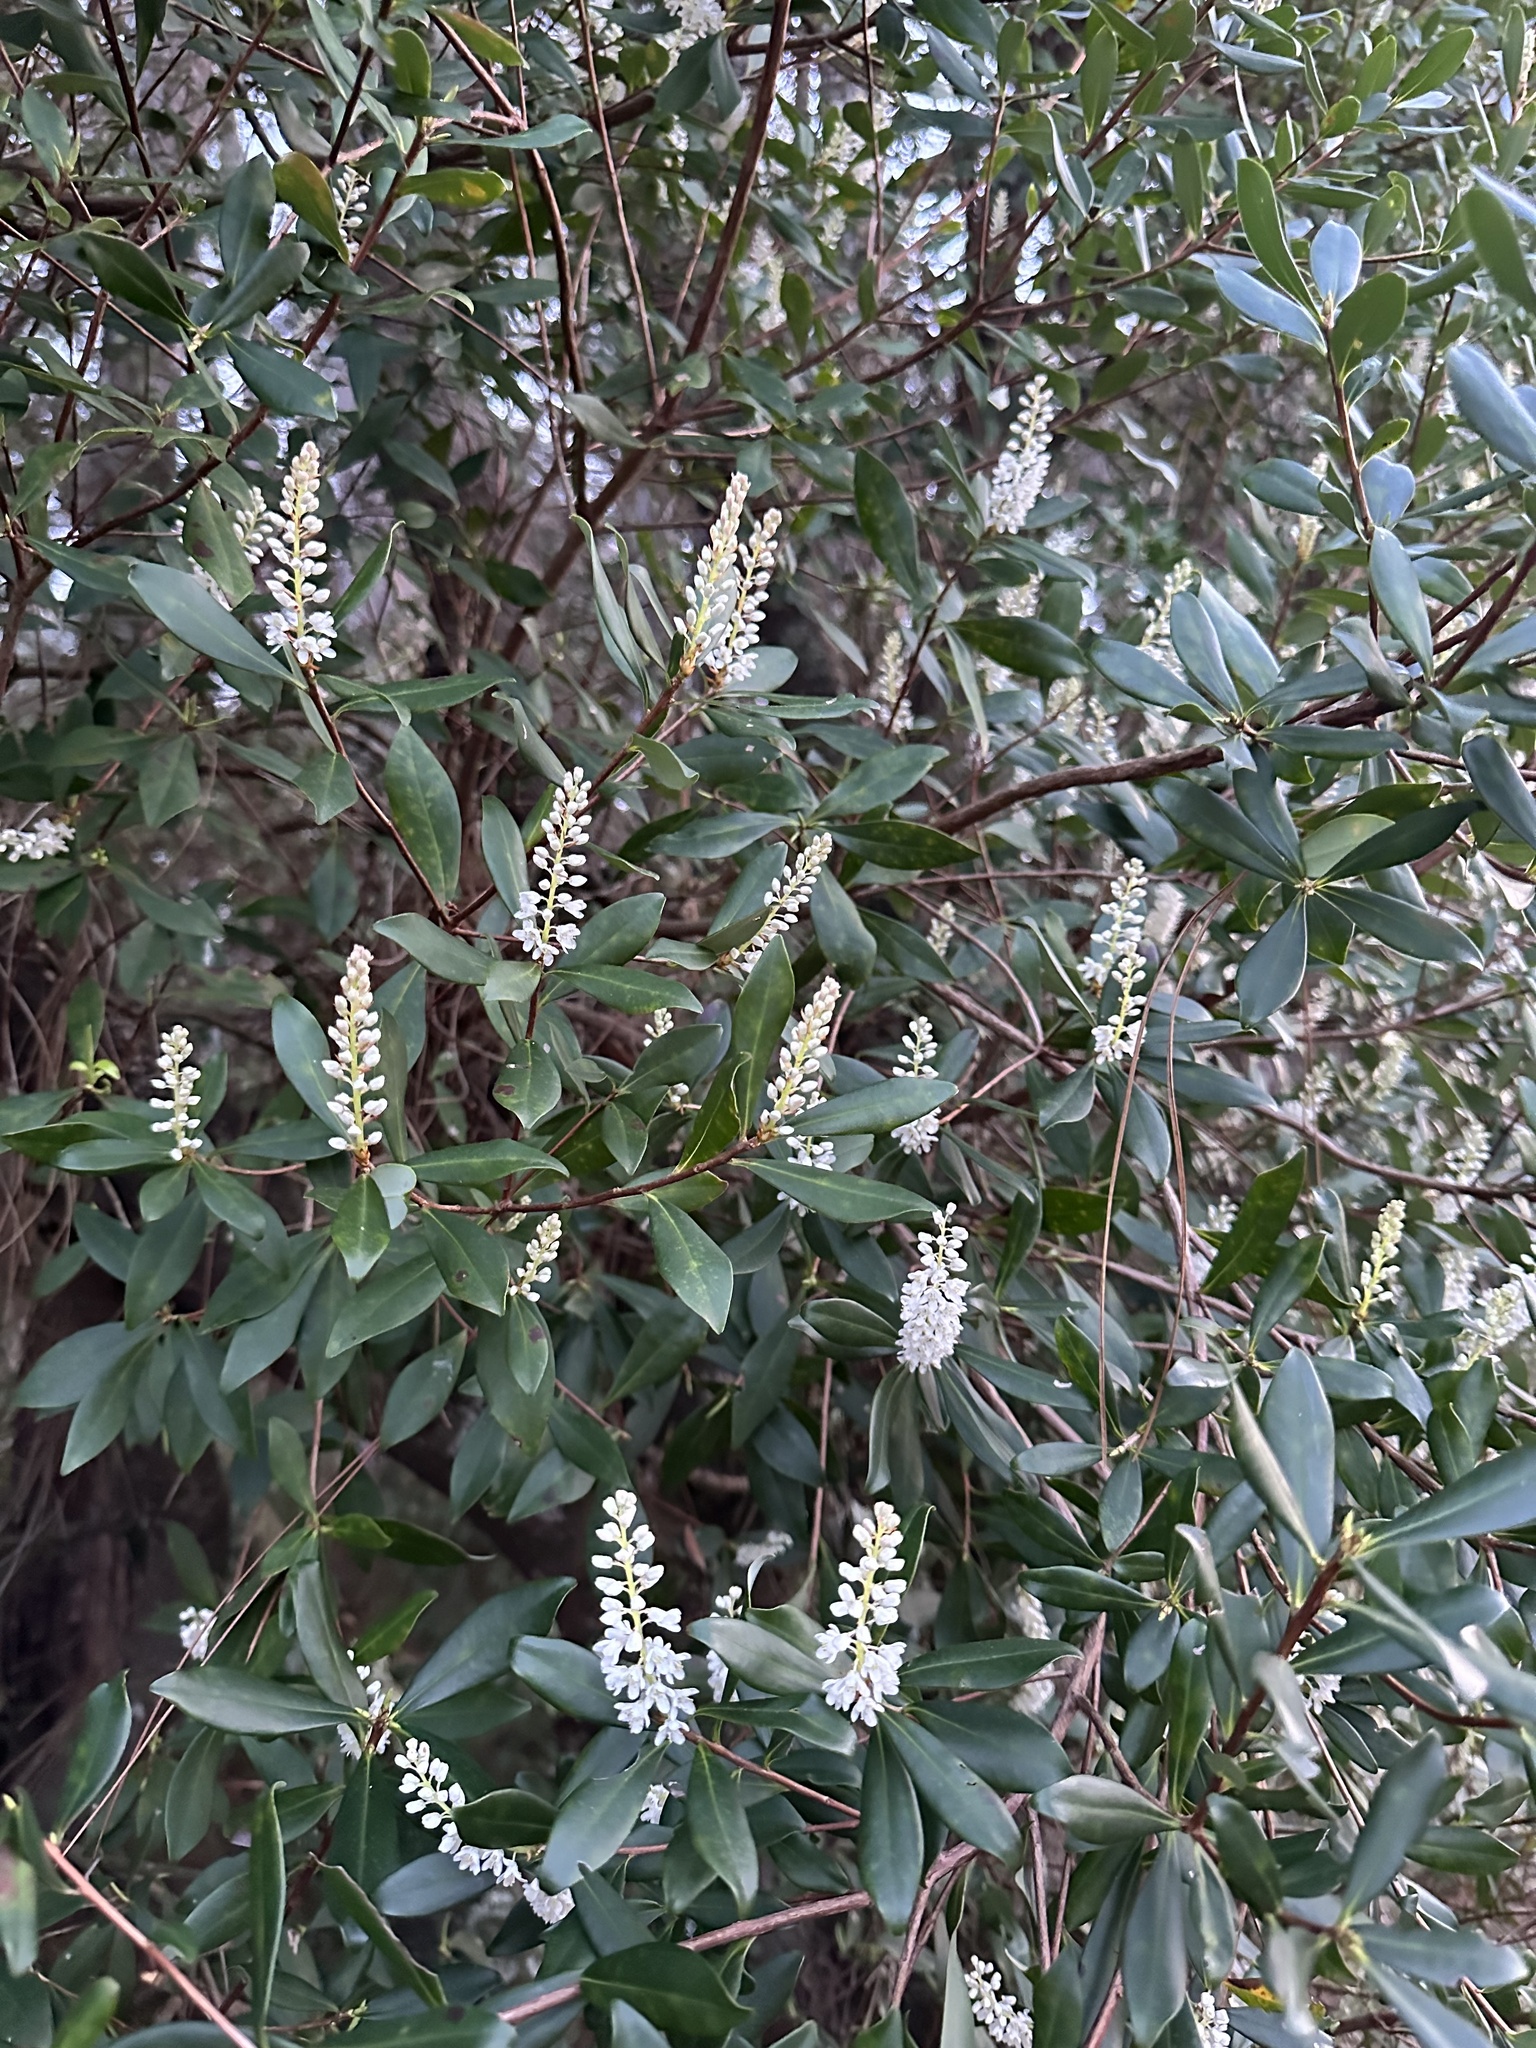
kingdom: Plantae
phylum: Tracheophyta
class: Magnoliopsida
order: Ericales
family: Cyrillaceae
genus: Cliftonia
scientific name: Cliftonia monophylla
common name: Titi
